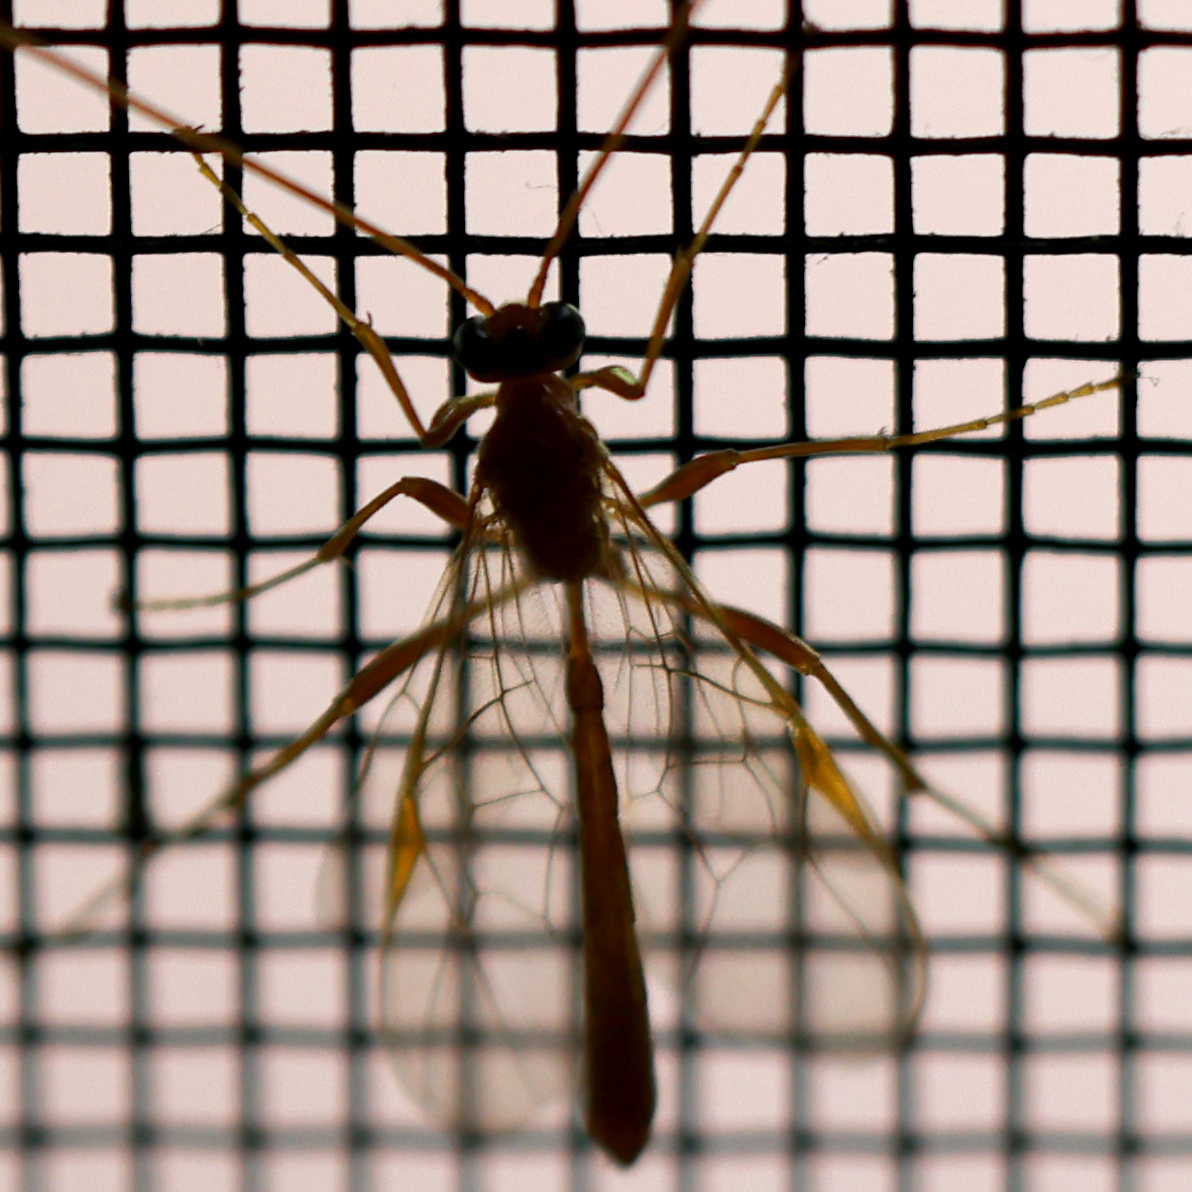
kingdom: Animalia
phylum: Arthropoda
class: Insecta
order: Hymenoptera
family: Ichneumonidae
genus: Ophion
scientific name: Ophion
